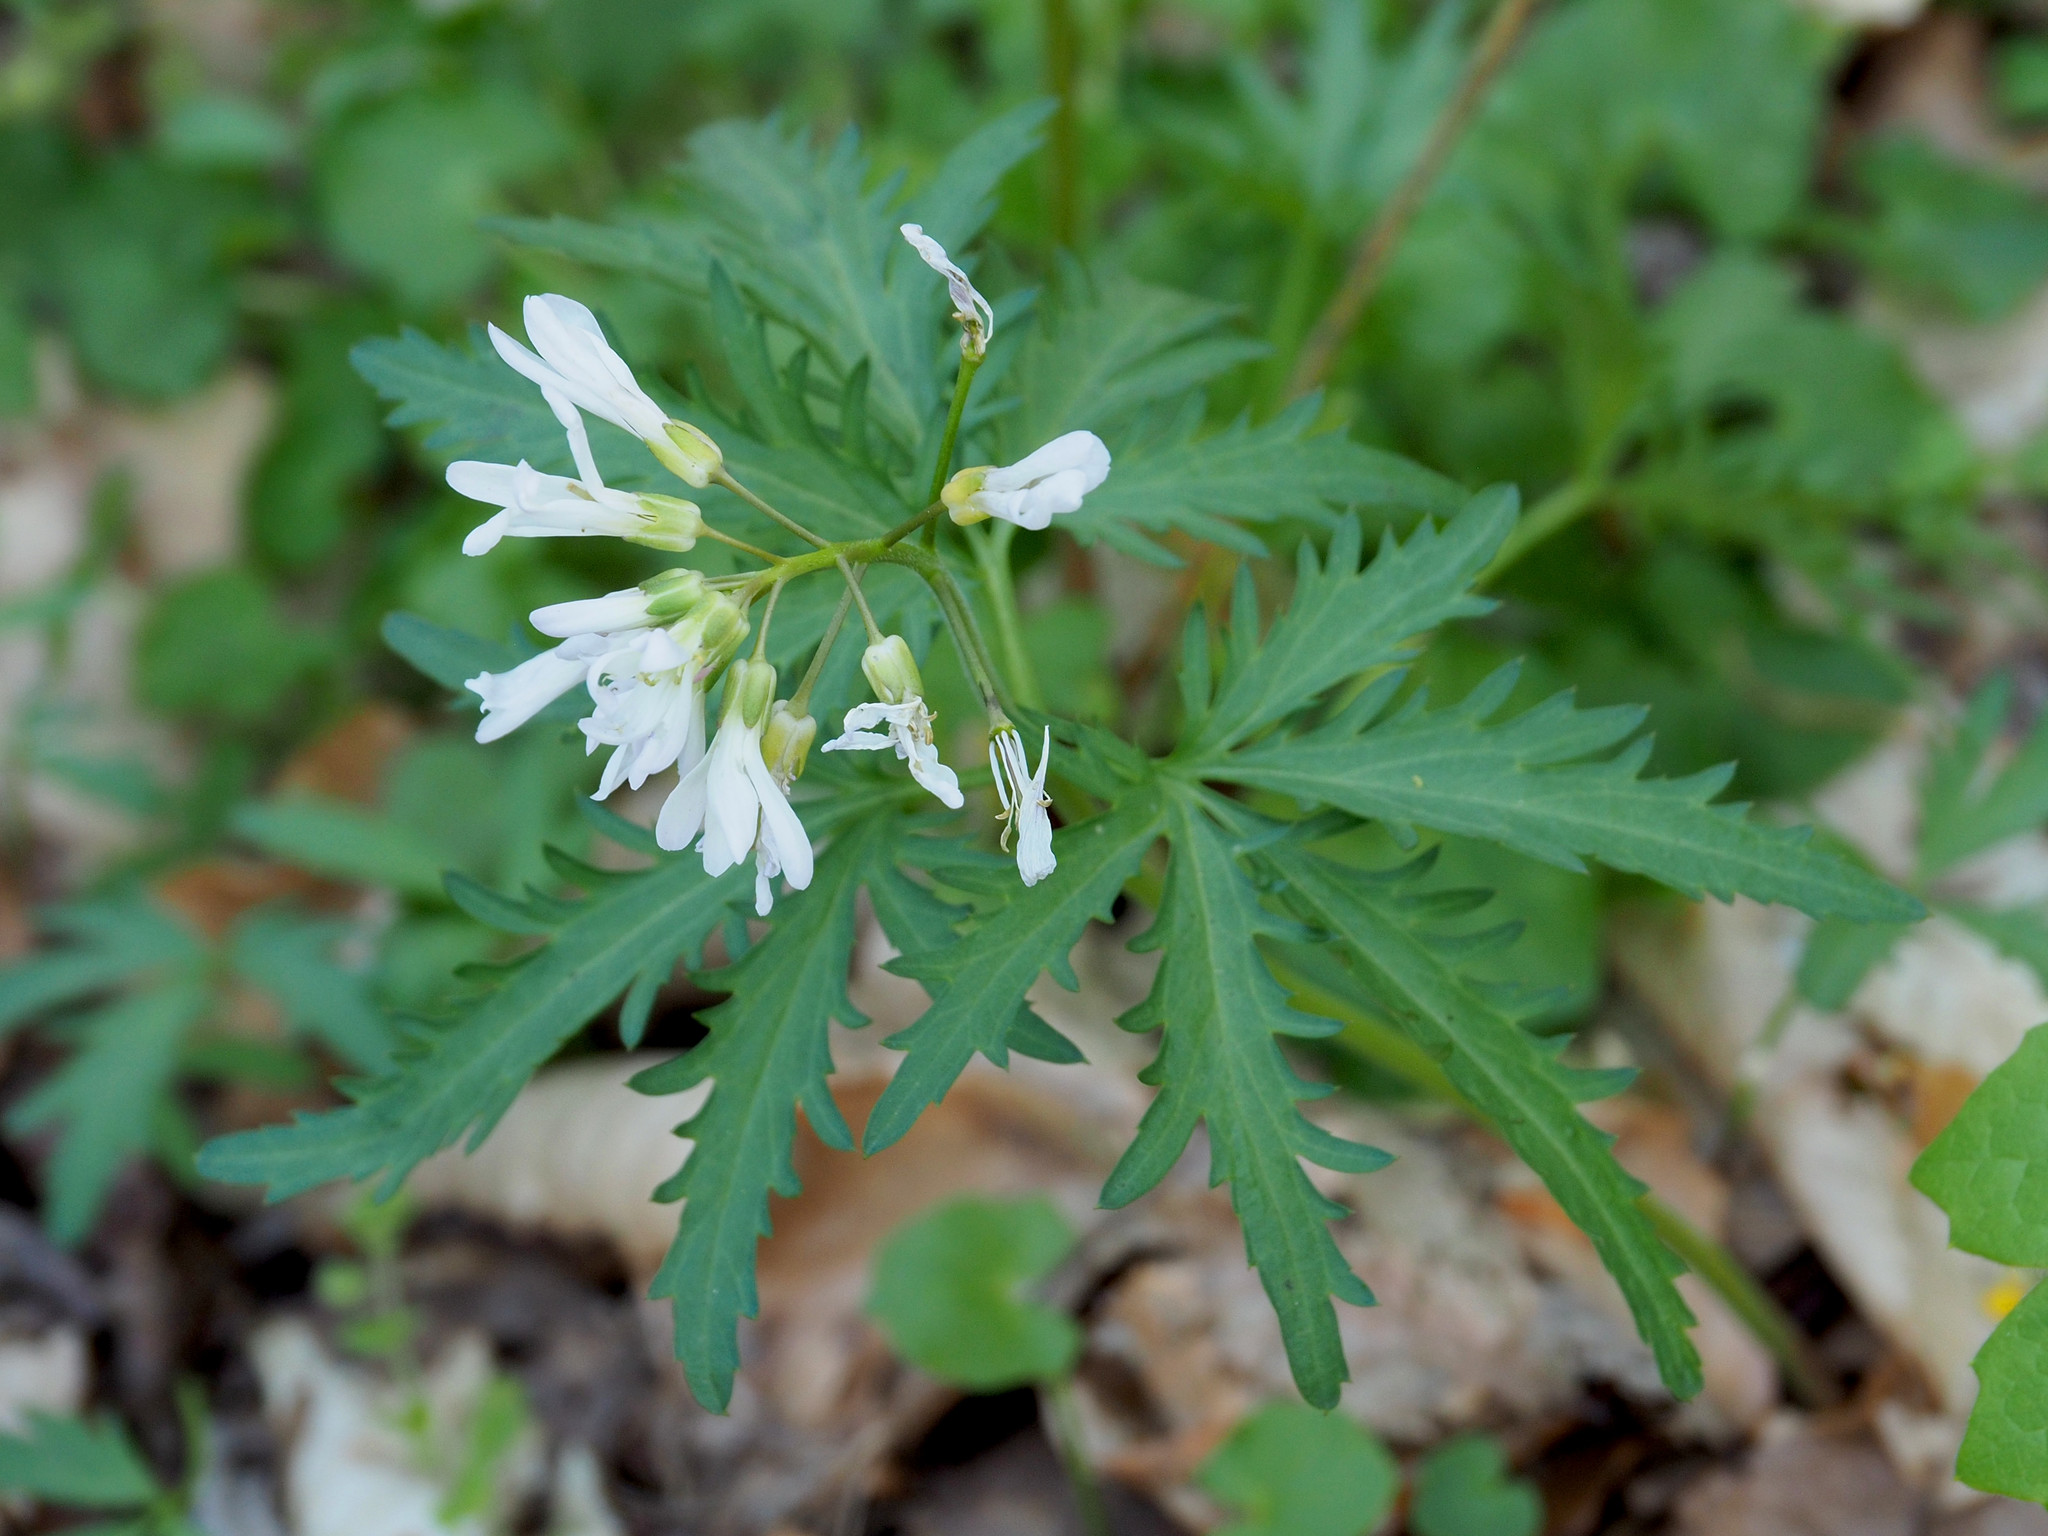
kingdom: Plantae
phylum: Tracheophyta
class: Magnoliopsida
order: Brassicales
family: Brassicaceae
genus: Cardamine
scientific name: Cardamine concatenata
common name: Cut-leaf toothcup
